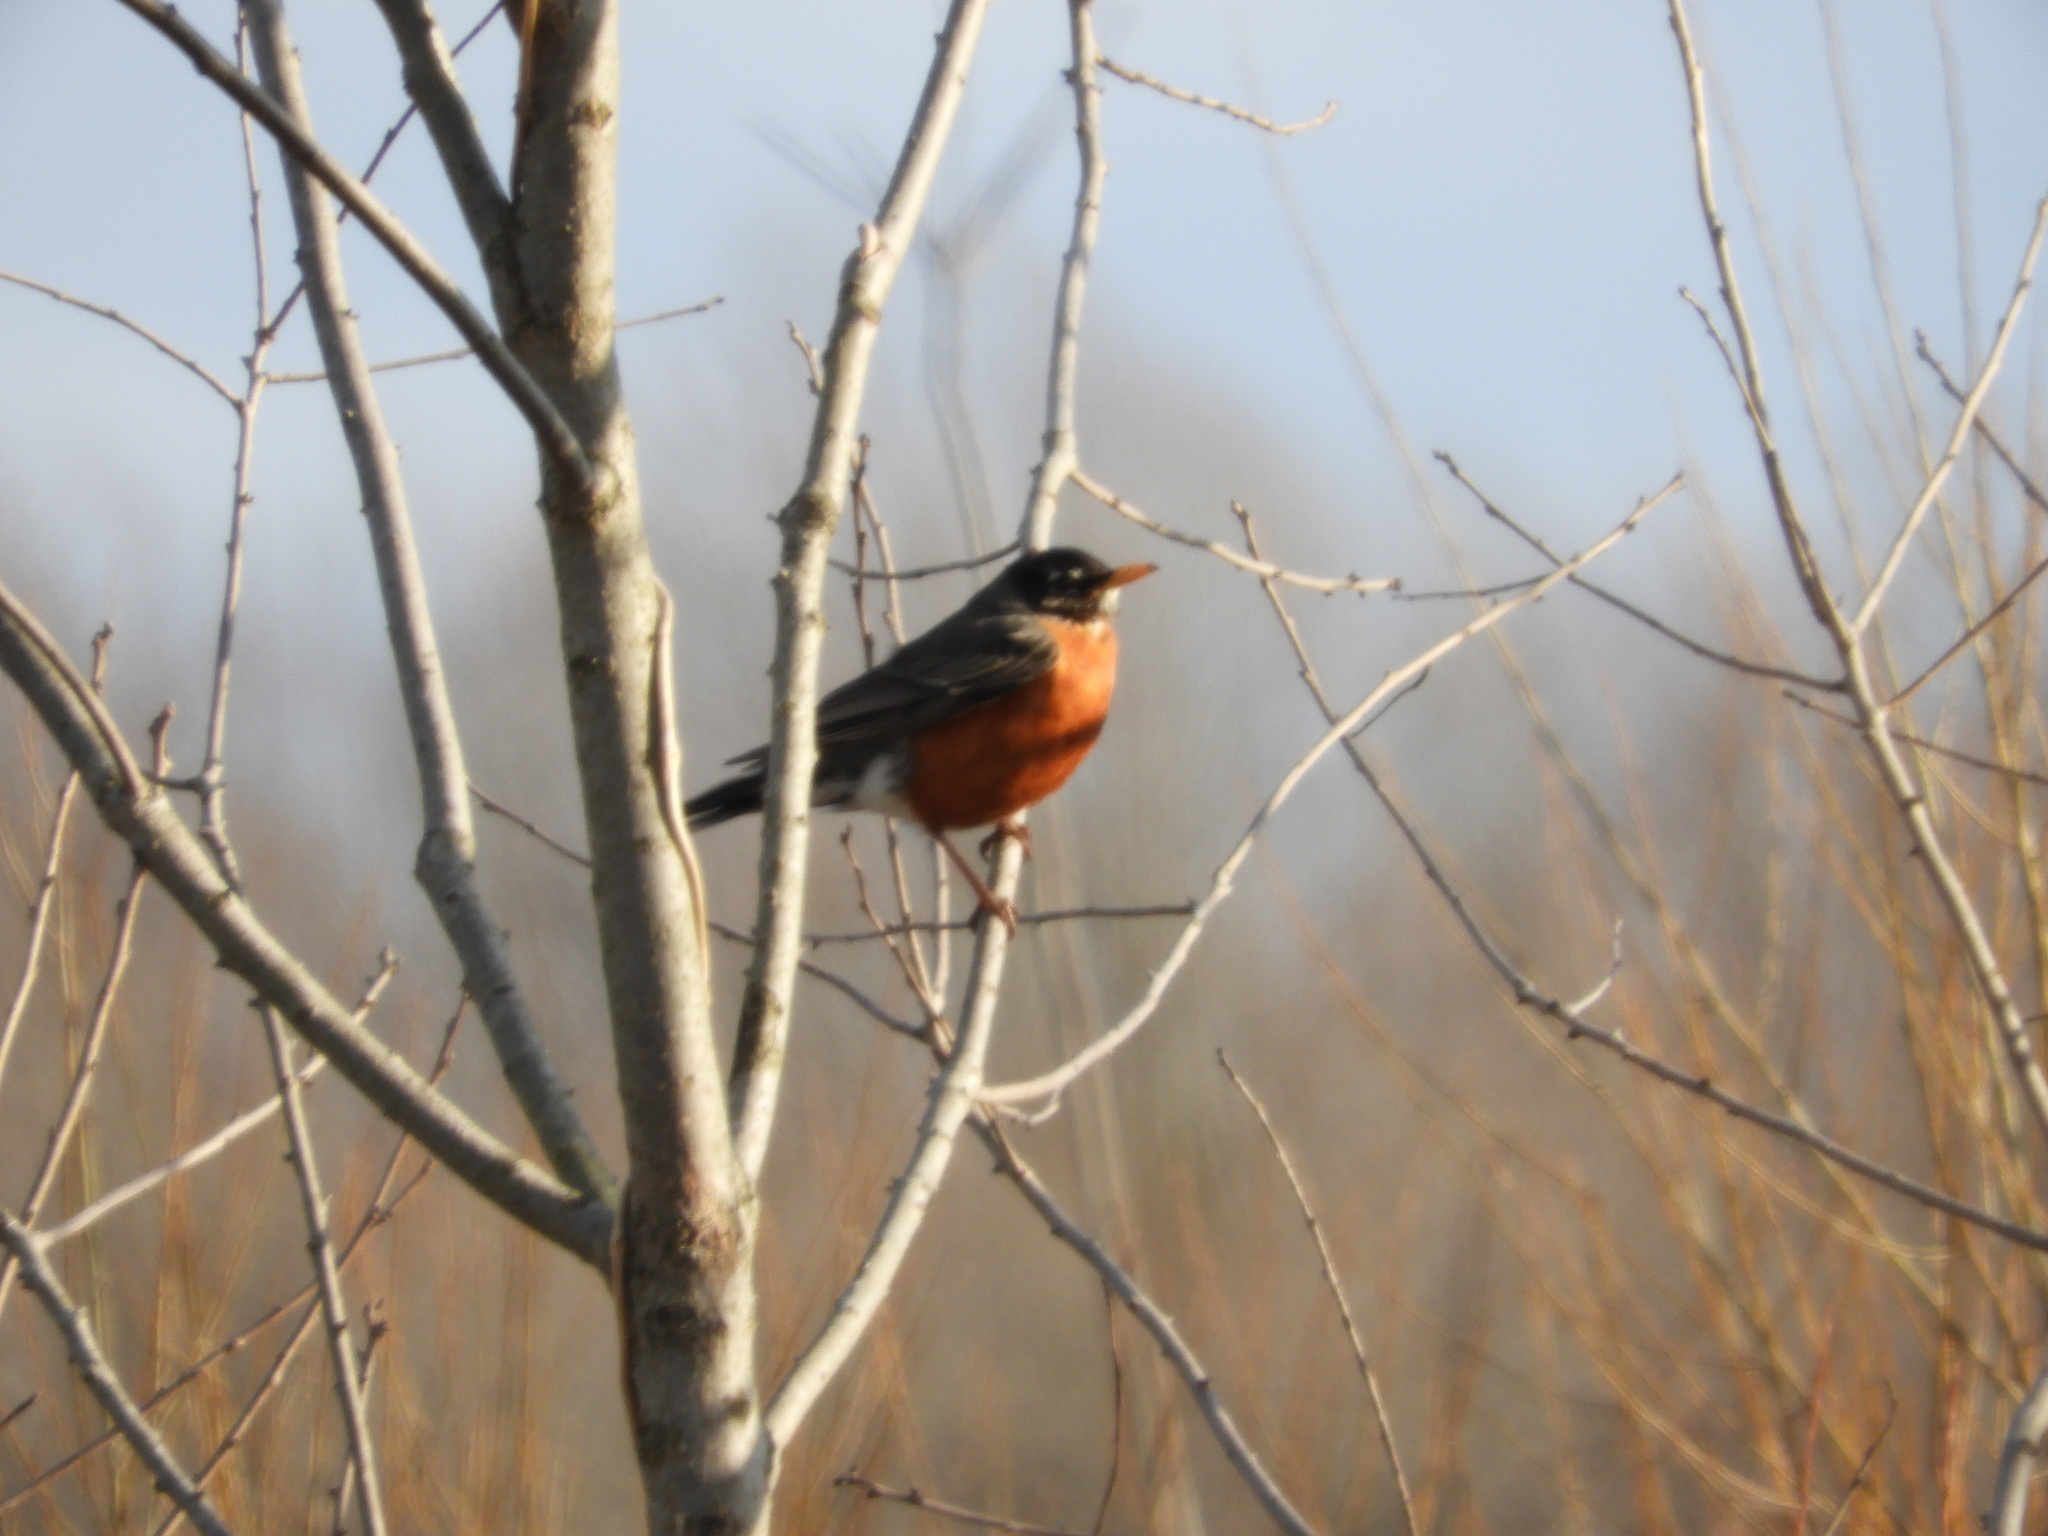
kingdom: Animalia
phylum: Chordata
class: Aves
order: Passeriformes
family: Turdidae
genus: Turdus
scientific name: Turdus migratorius
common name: American robin
